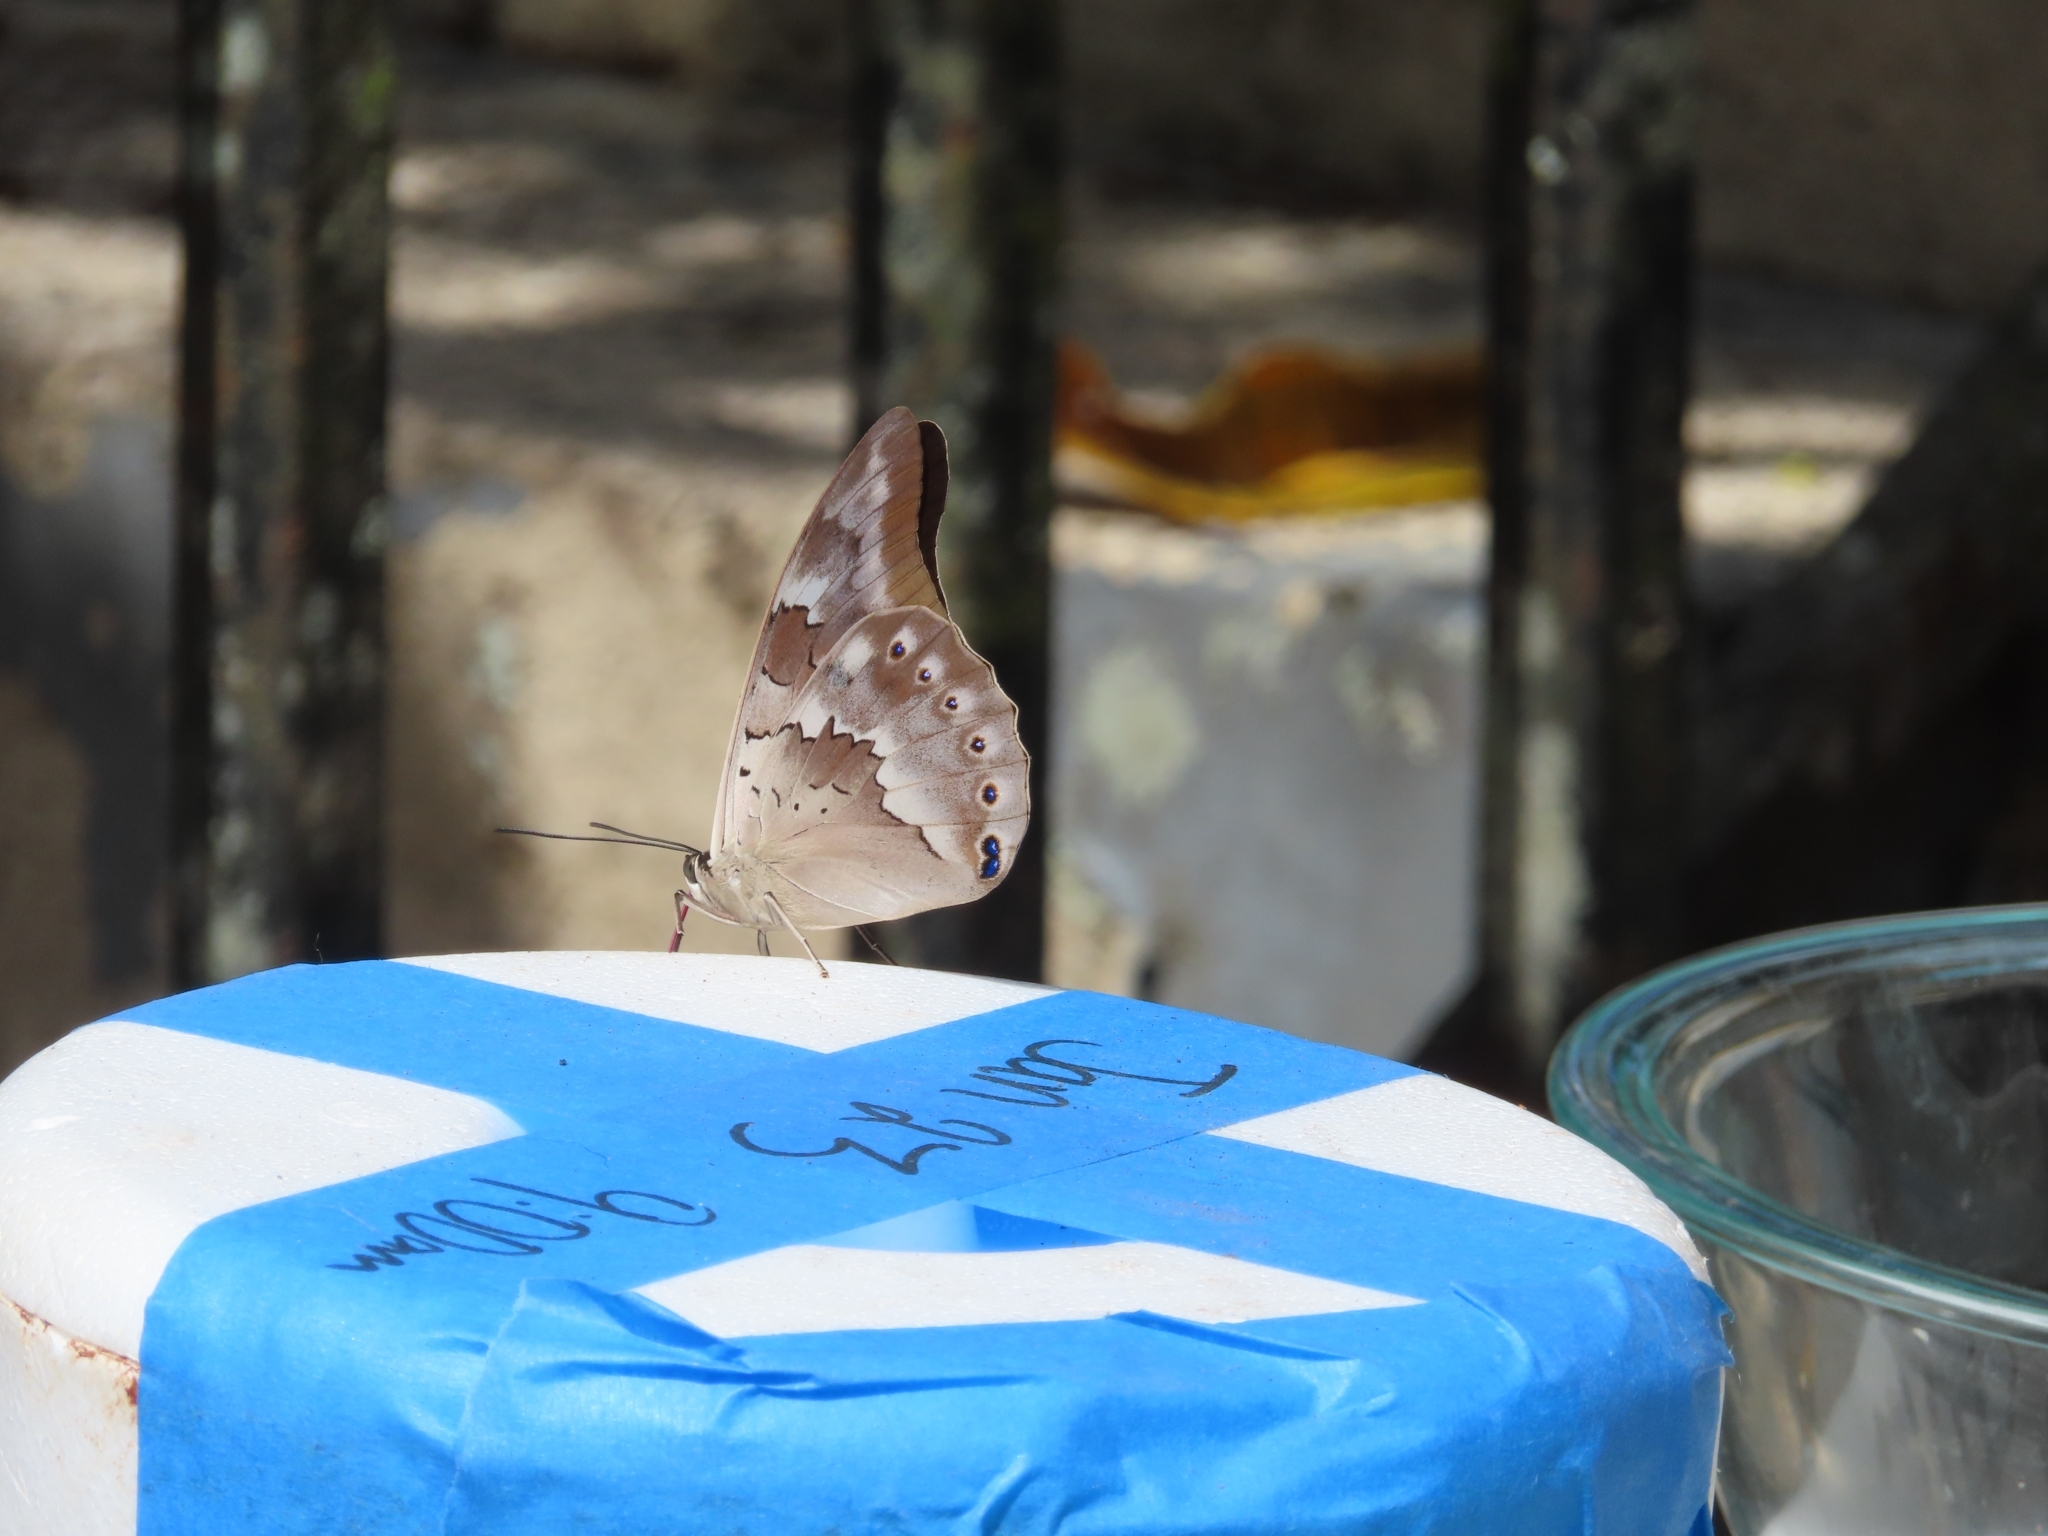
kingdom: Animalia
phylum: Arthropoda
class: Insecta
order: Lepidoptera
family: Nymphalidae
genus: Prepona
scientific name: Prepona demophoon
